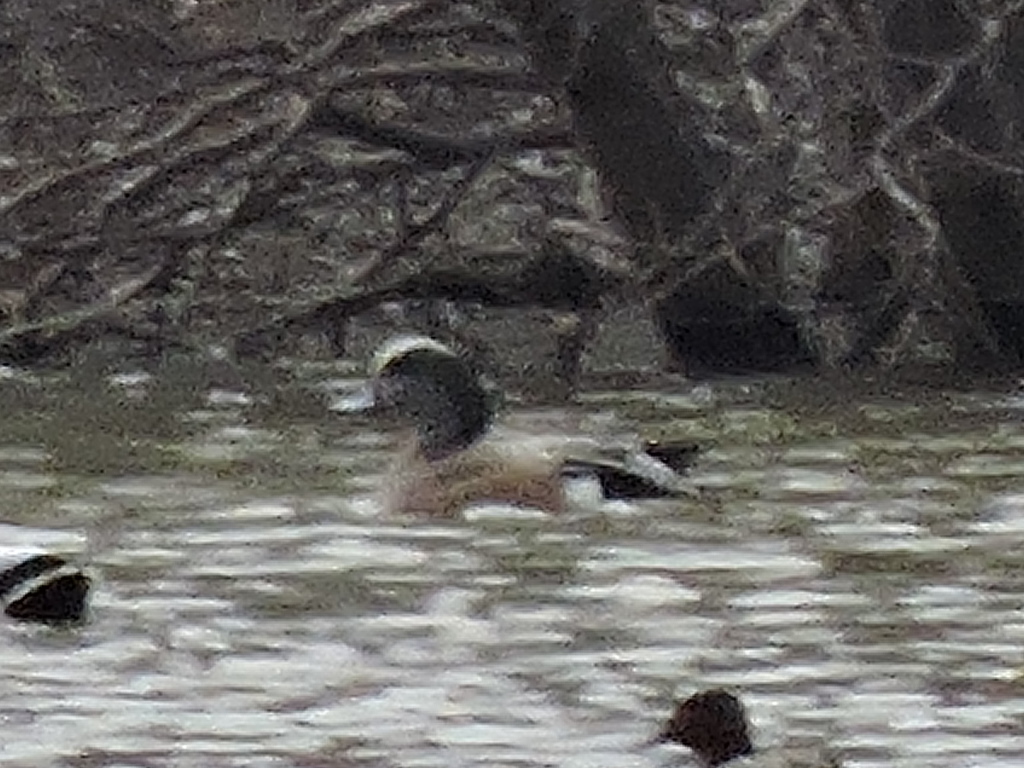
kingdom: Animalia
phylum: Chordata
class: Aves
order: Anseriformes
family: Anatidae
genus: Mareca
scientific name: Mareca americana
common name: American wigeon
